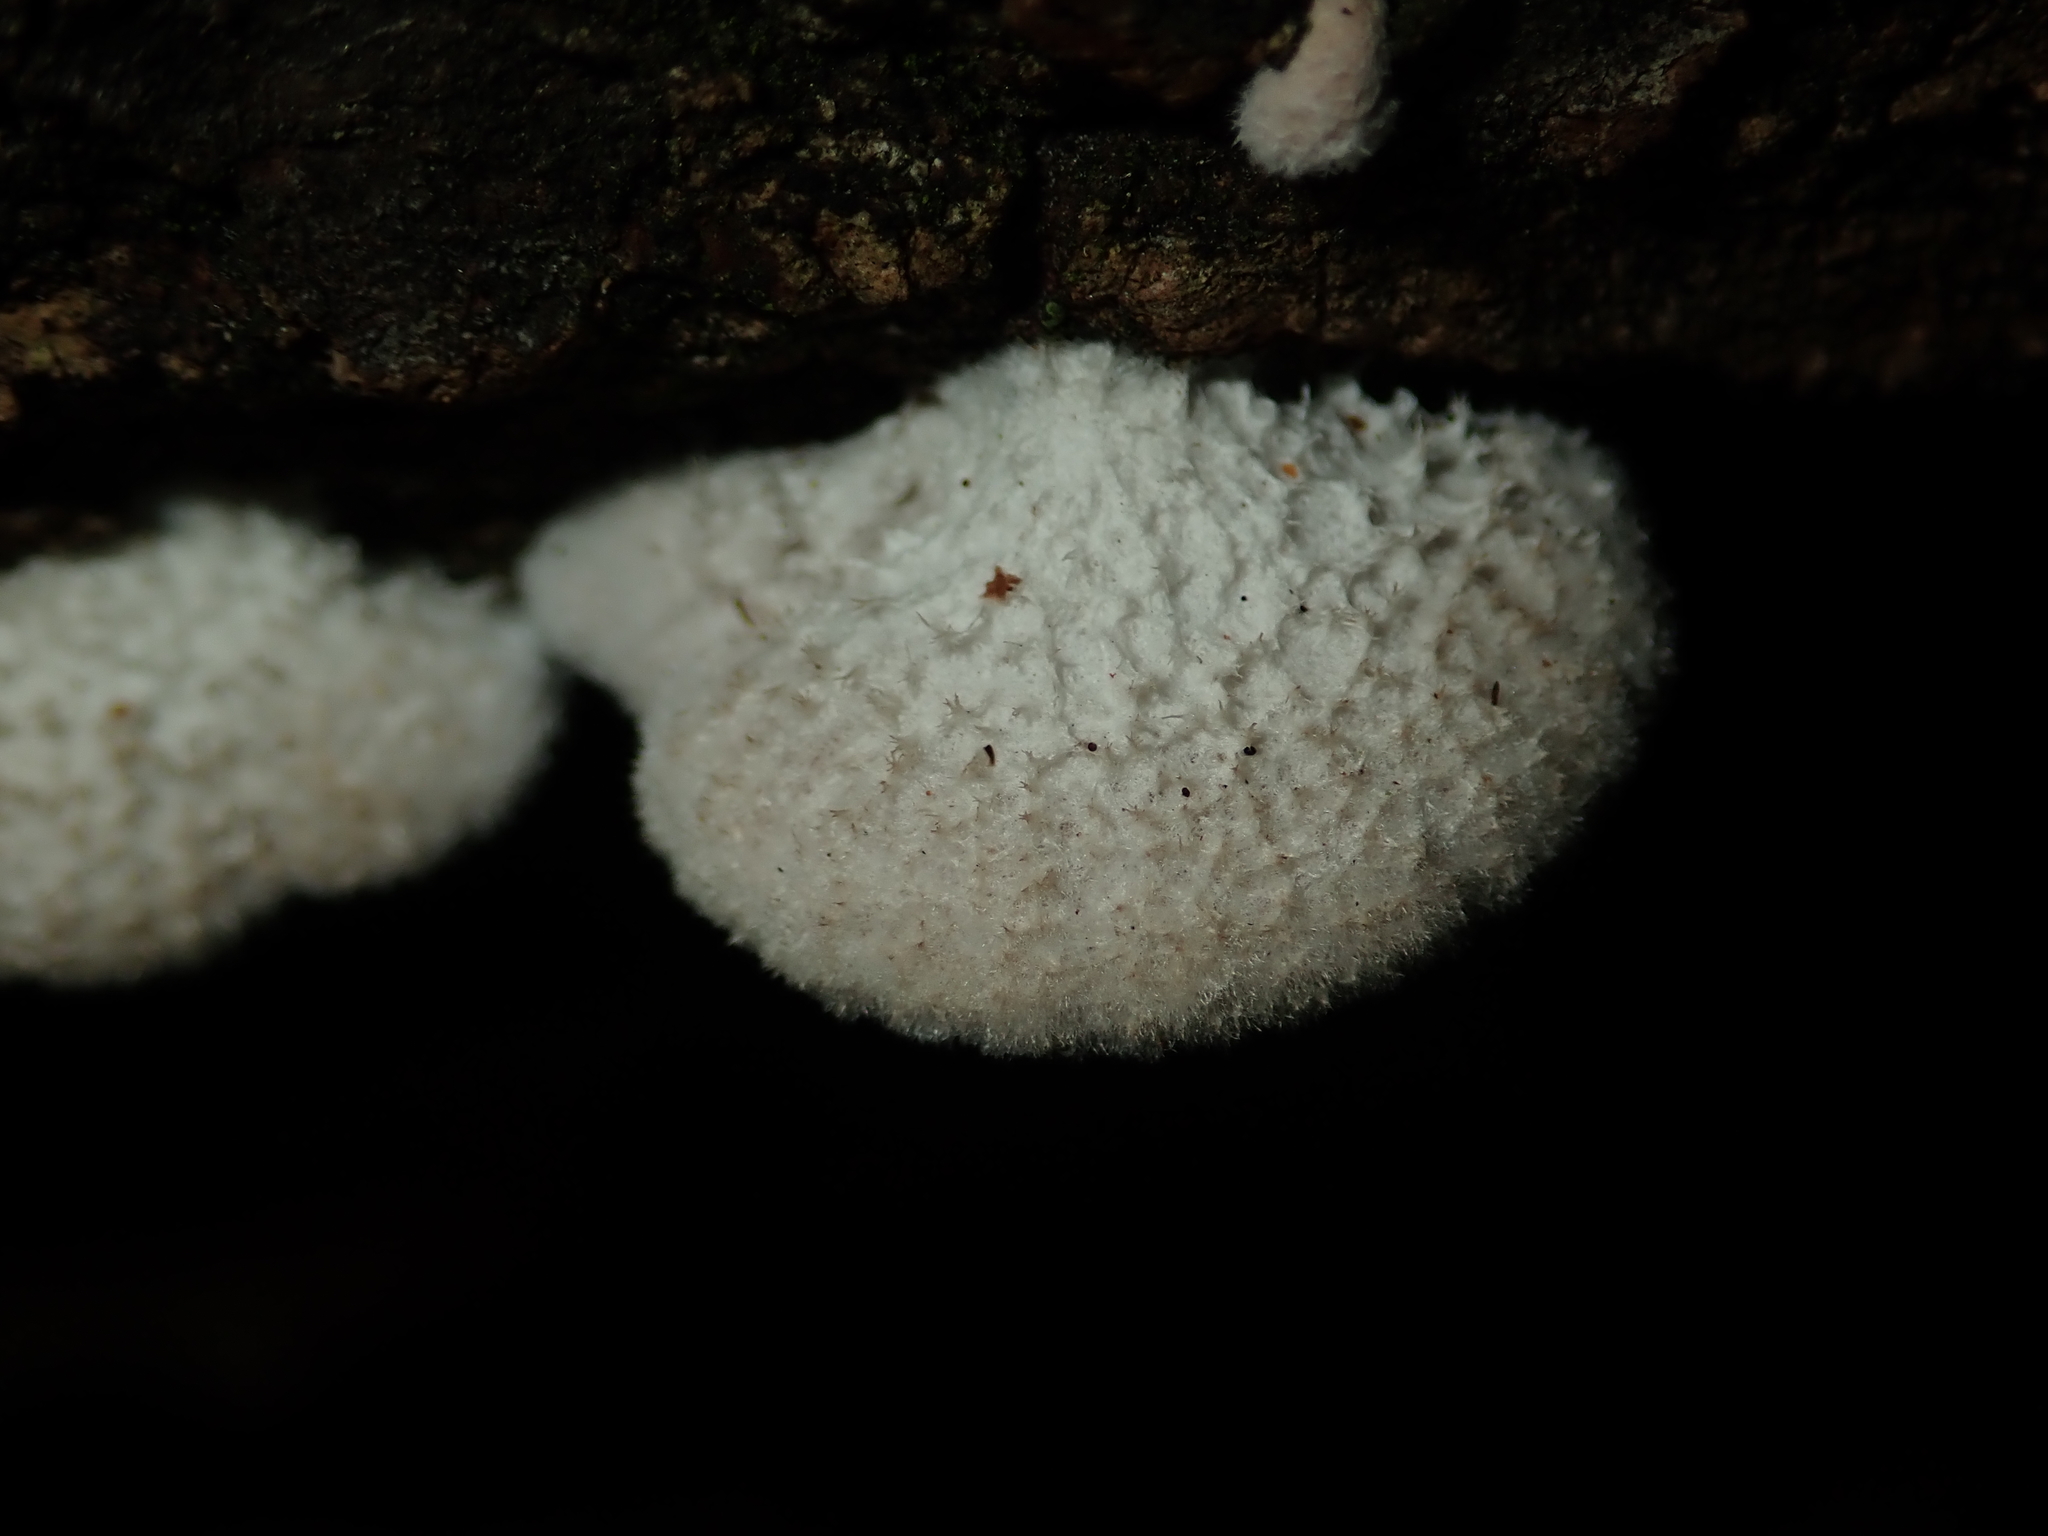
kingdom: Fungi
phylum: Basidiomycota
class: Agaricomycetes
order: Agaricales
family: Schizophyllaceae
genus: Schizophyllum
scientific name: Schizophyllum commune
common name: Common porecrust
